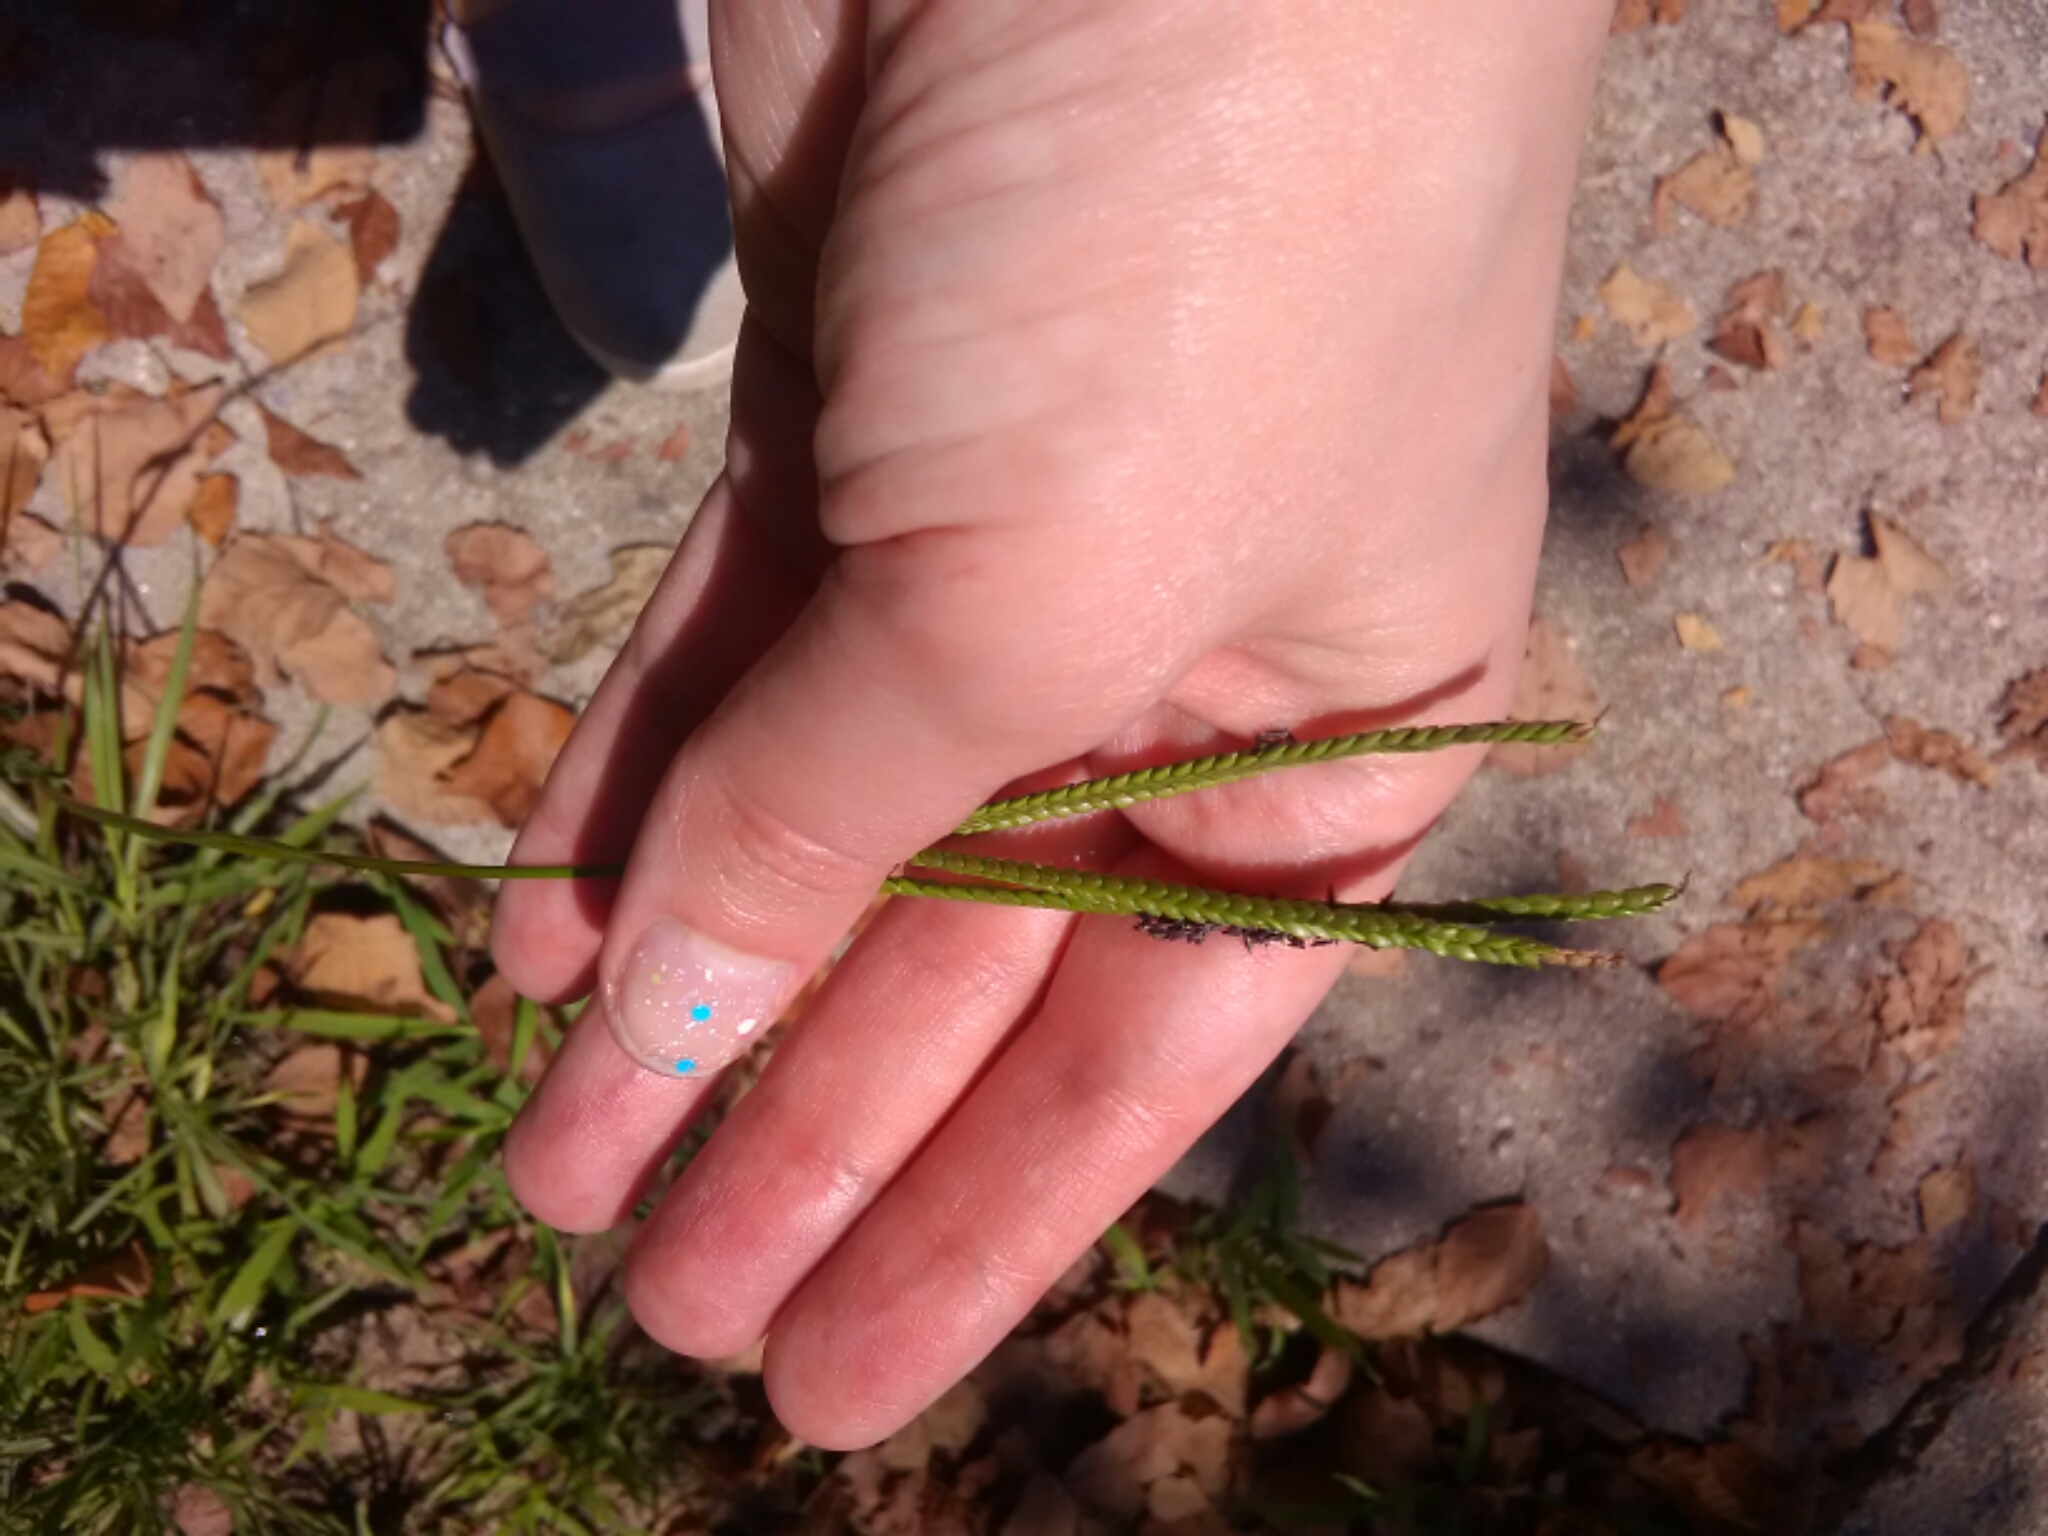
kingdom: Plantae
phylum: Tracheophyta
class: Liliopsida
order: Poales
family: Poaceae
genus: Paspalum
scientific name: Paspalum notatum
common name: Bahiagrass
